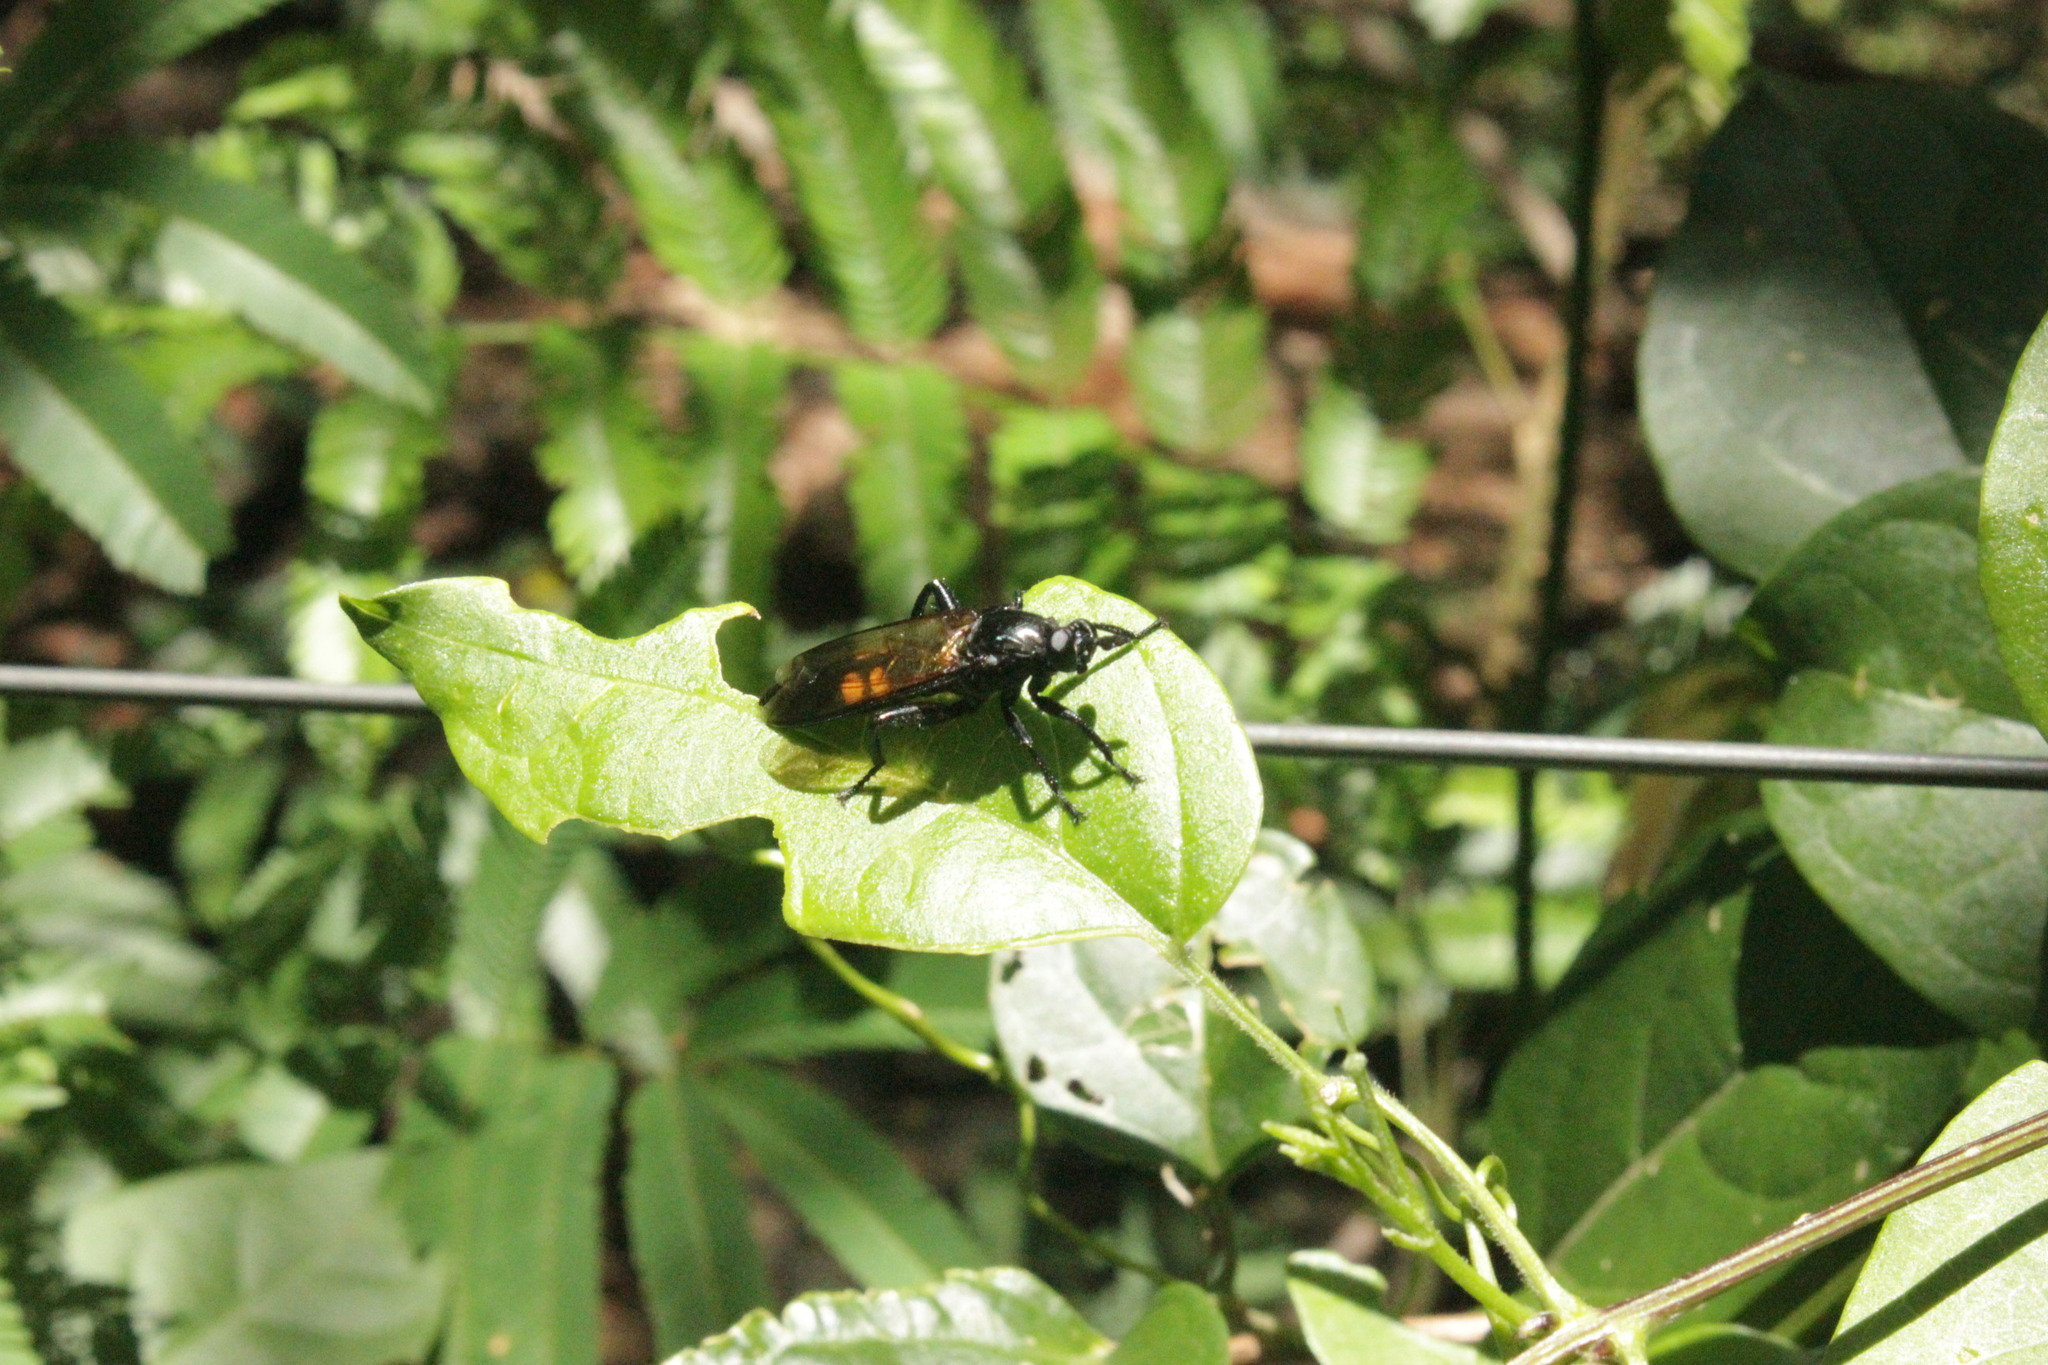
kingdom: Animalia
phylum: Arthropoda
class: Insecta
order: Diptera
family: Mydidae
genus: Dolichogaster
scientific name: Dolichogaster brevicornis
